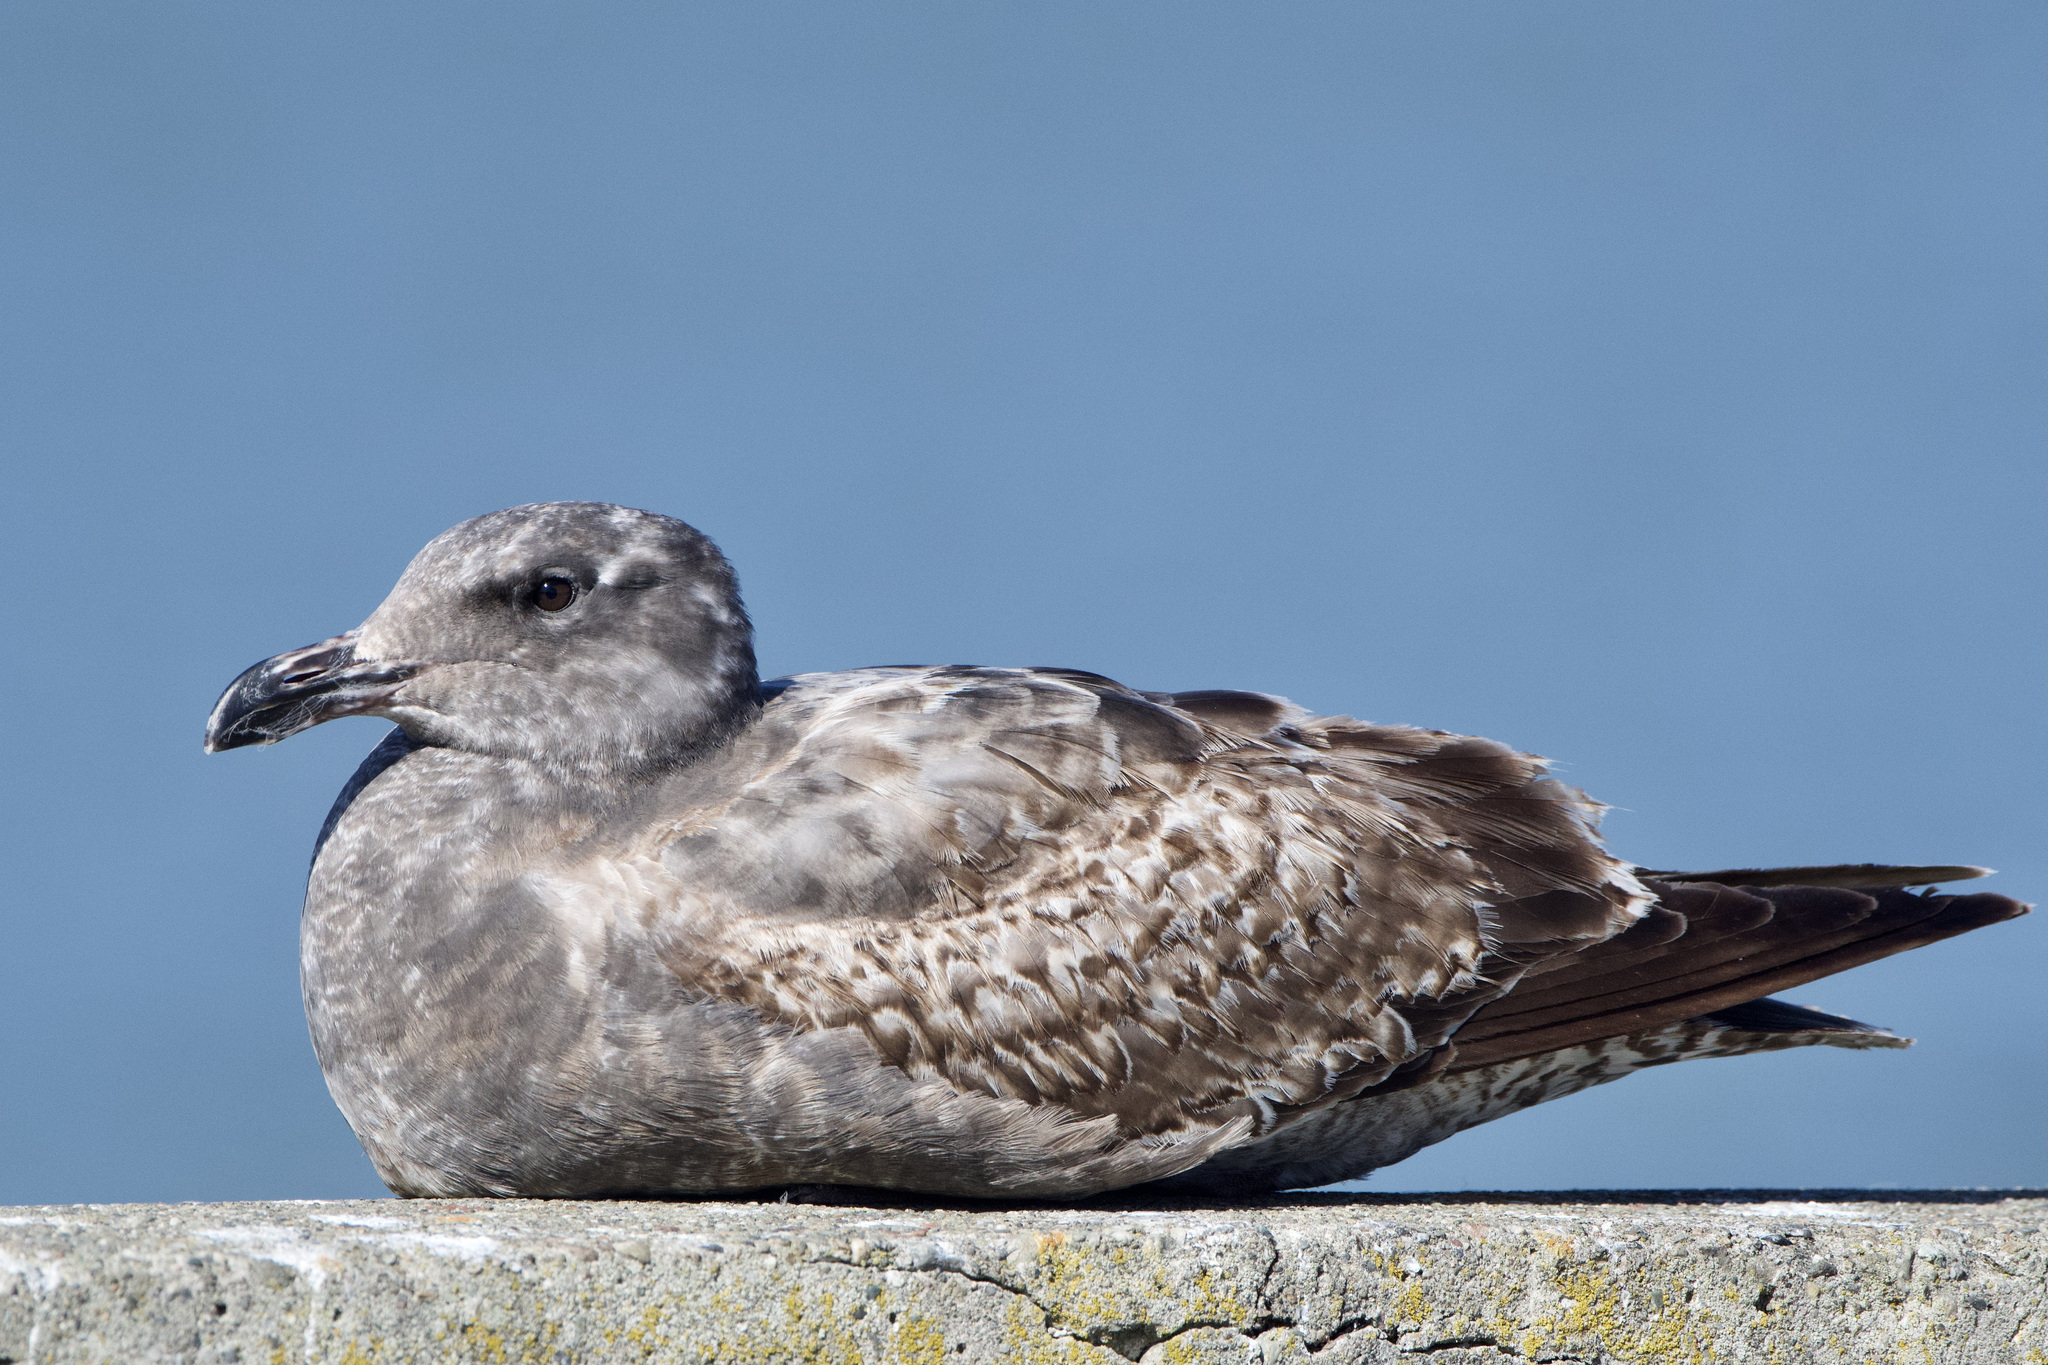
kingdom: Animalia
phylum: Chordata
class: Aves
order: Charadriiformes
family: Laridae
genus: Larus
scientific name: Larus occidentalis
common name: Western gull
